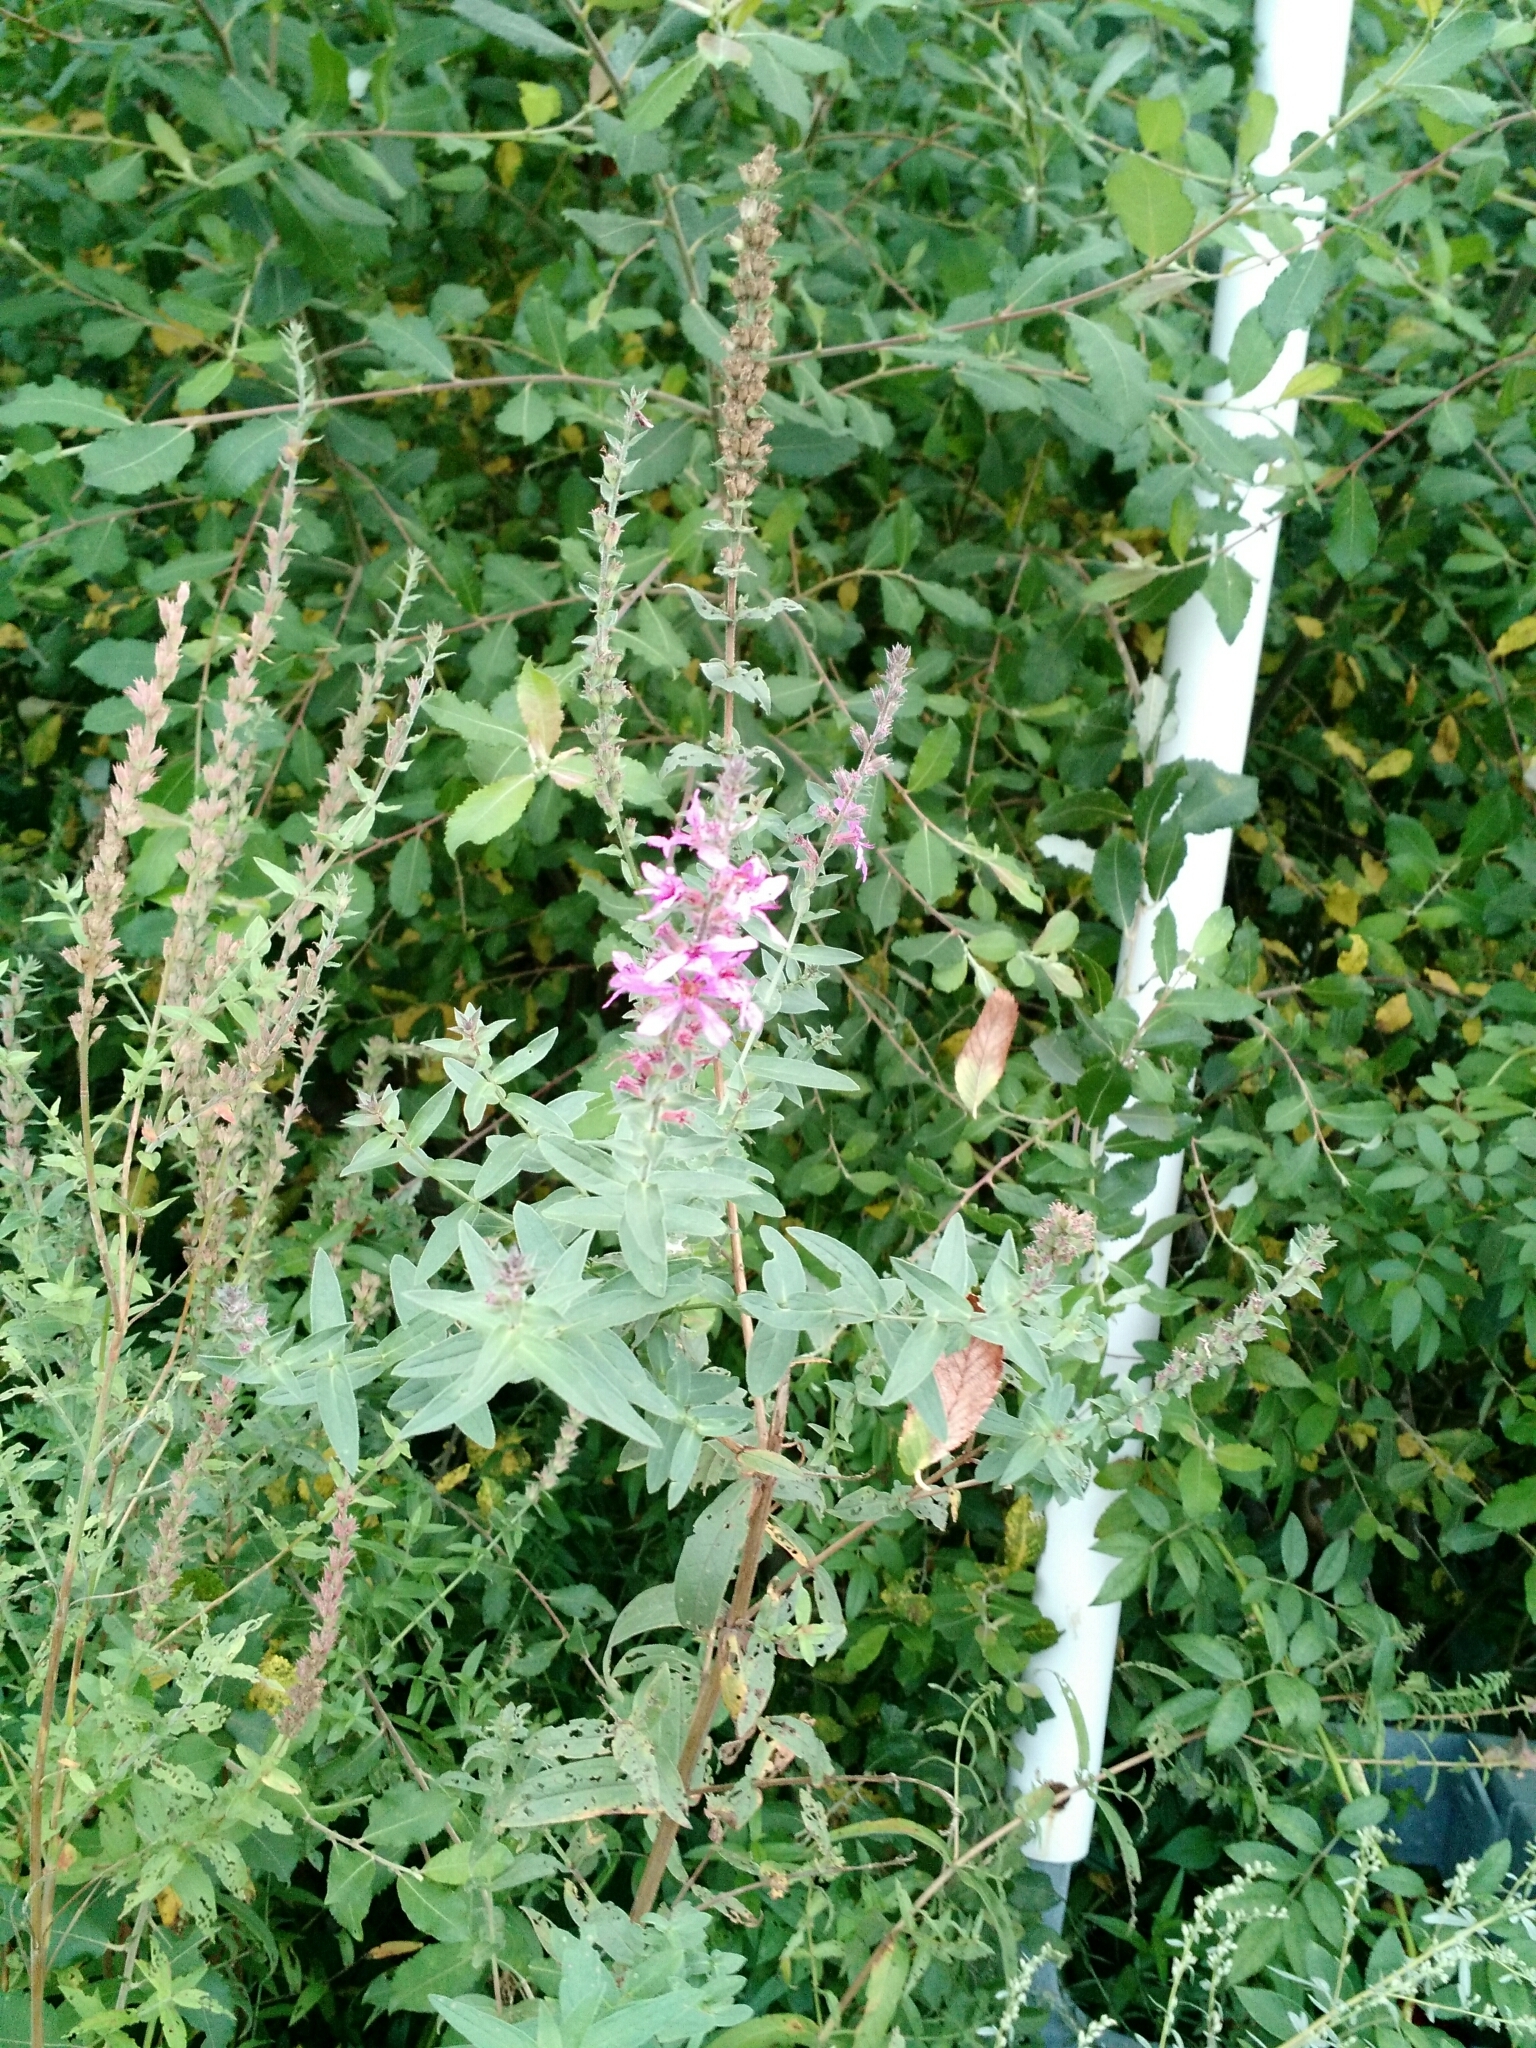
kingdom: Plantae
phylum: Tracheophyta
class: Magnoliopsida
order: Myrtales
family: Lythraceae
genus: Lythrum
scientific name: Lythrum salicaria
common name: Purple loosestrife
